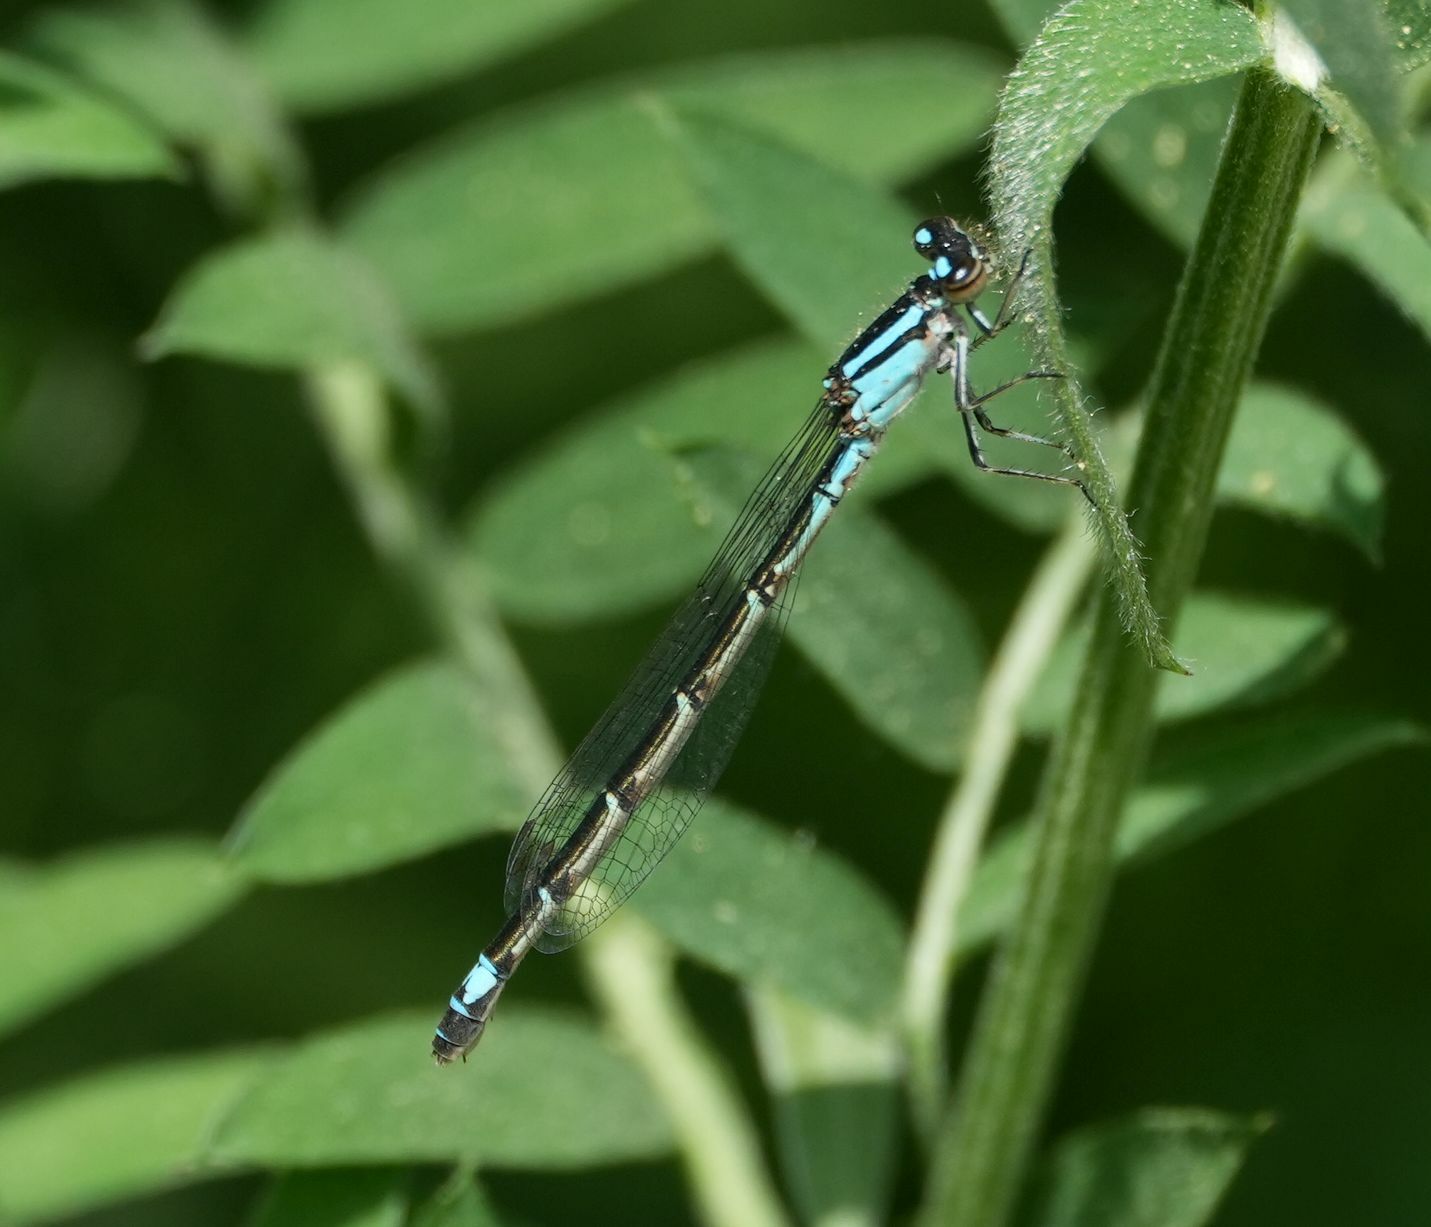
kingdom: Animalia
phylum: Arthropoda
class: Insecta
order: Odonata
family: Coenagrionidae
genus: Enallagma
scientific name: Enallagma geminatum
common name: Skimming bluet
